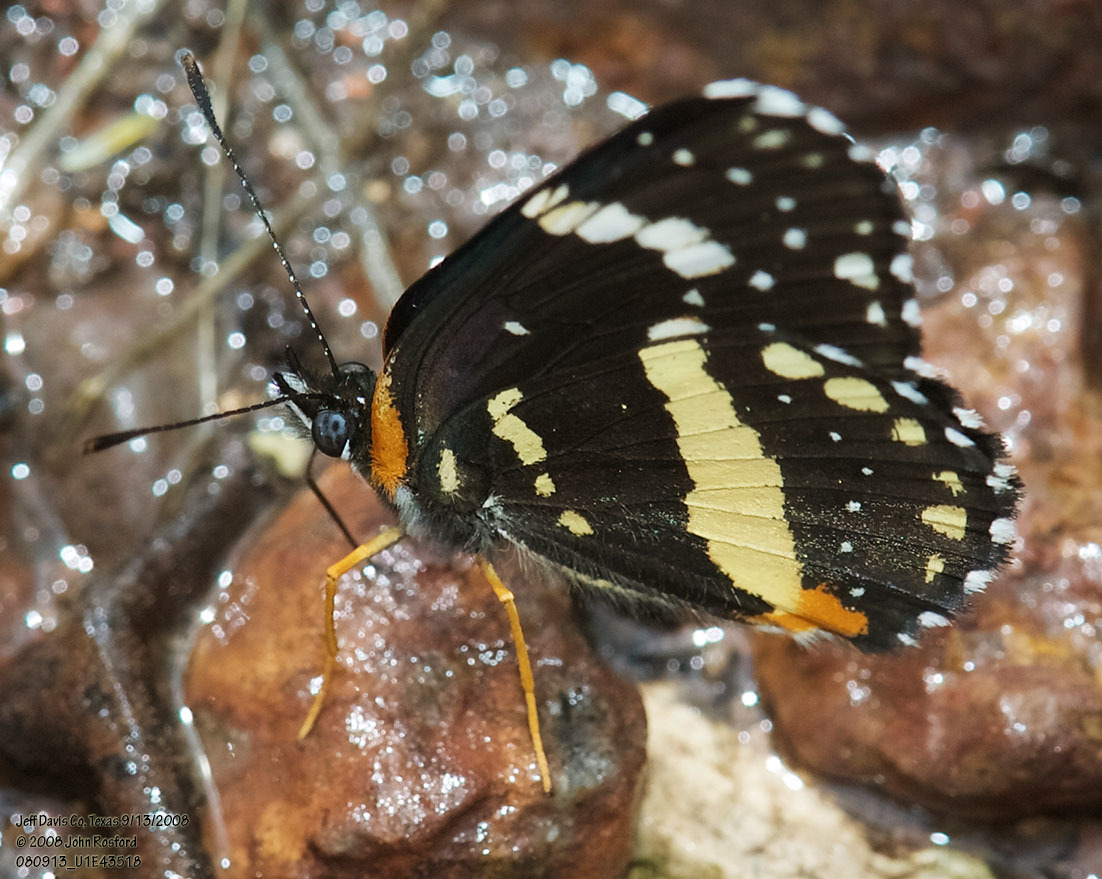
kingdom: Animalia
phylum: Arthropoda
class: Insecta
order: Lepidoptera
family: Nymphalidae
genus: Chlosyne
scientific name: Chlosyne lacinia
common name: Bordered patch
